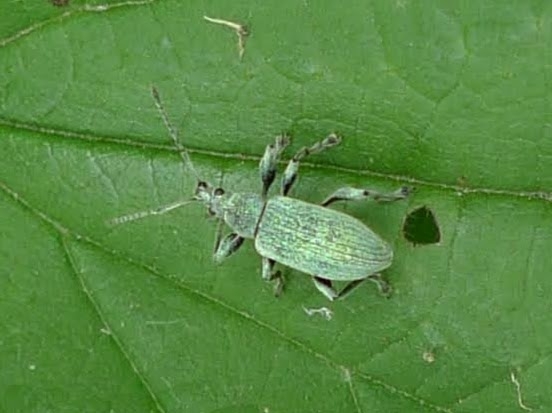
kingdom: Animalia
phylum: Arthropoda
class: Insecta
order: Coleoptera
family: Curculionidae
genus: Phyllobius
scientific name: Phyllobius pomaceus
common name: Green nettle weevil
